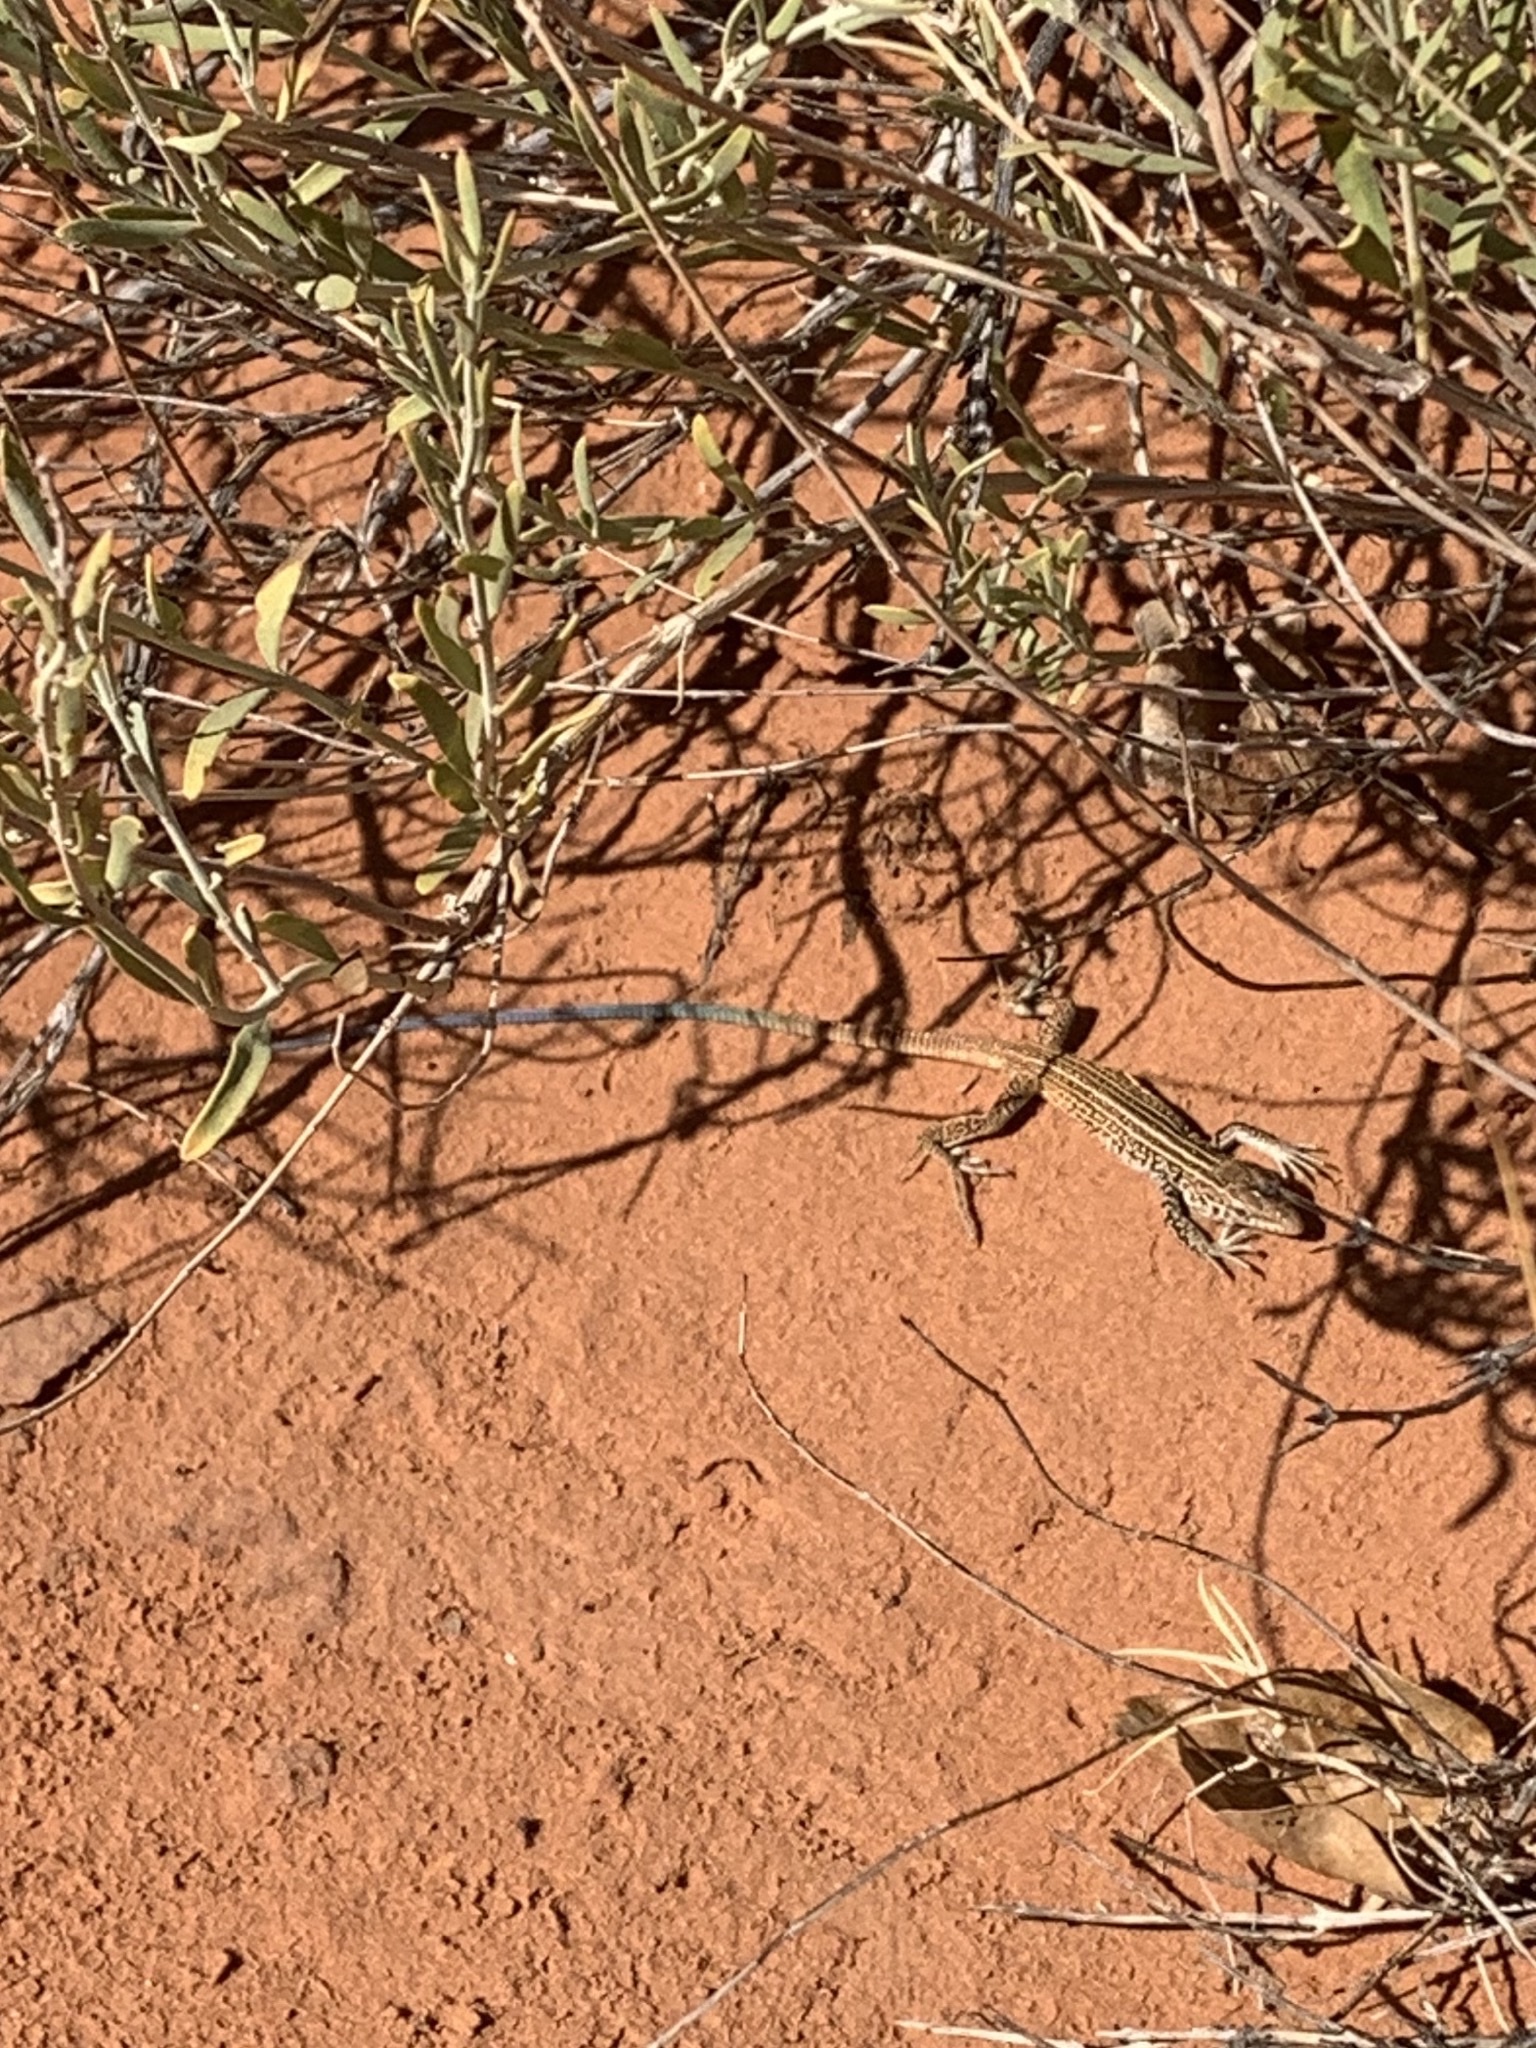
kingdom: Animalia
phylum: Chordata
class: Squamata
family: Teiidae
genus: Aspidoscelis
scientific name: Aspidoscelis tigris
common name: Tiger whiptail
